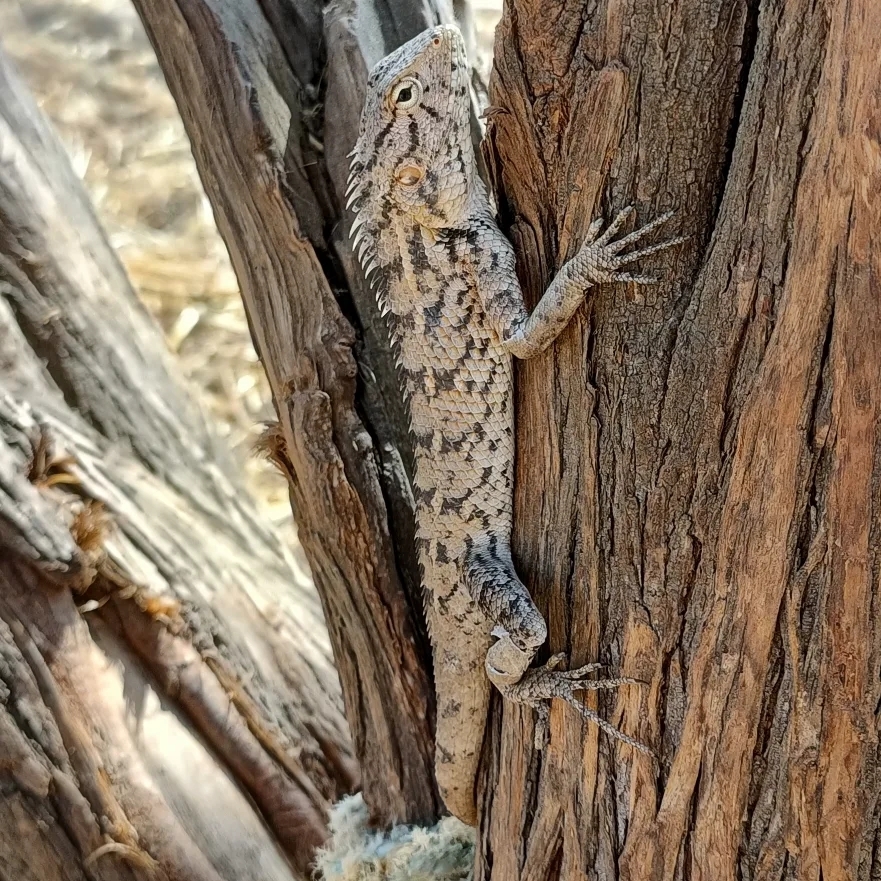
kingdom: Animalia
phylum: Chordata
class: Squamata
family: Agamidae
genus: Calotes
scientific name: Calotes versicolor
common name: Oriental garden lizard
